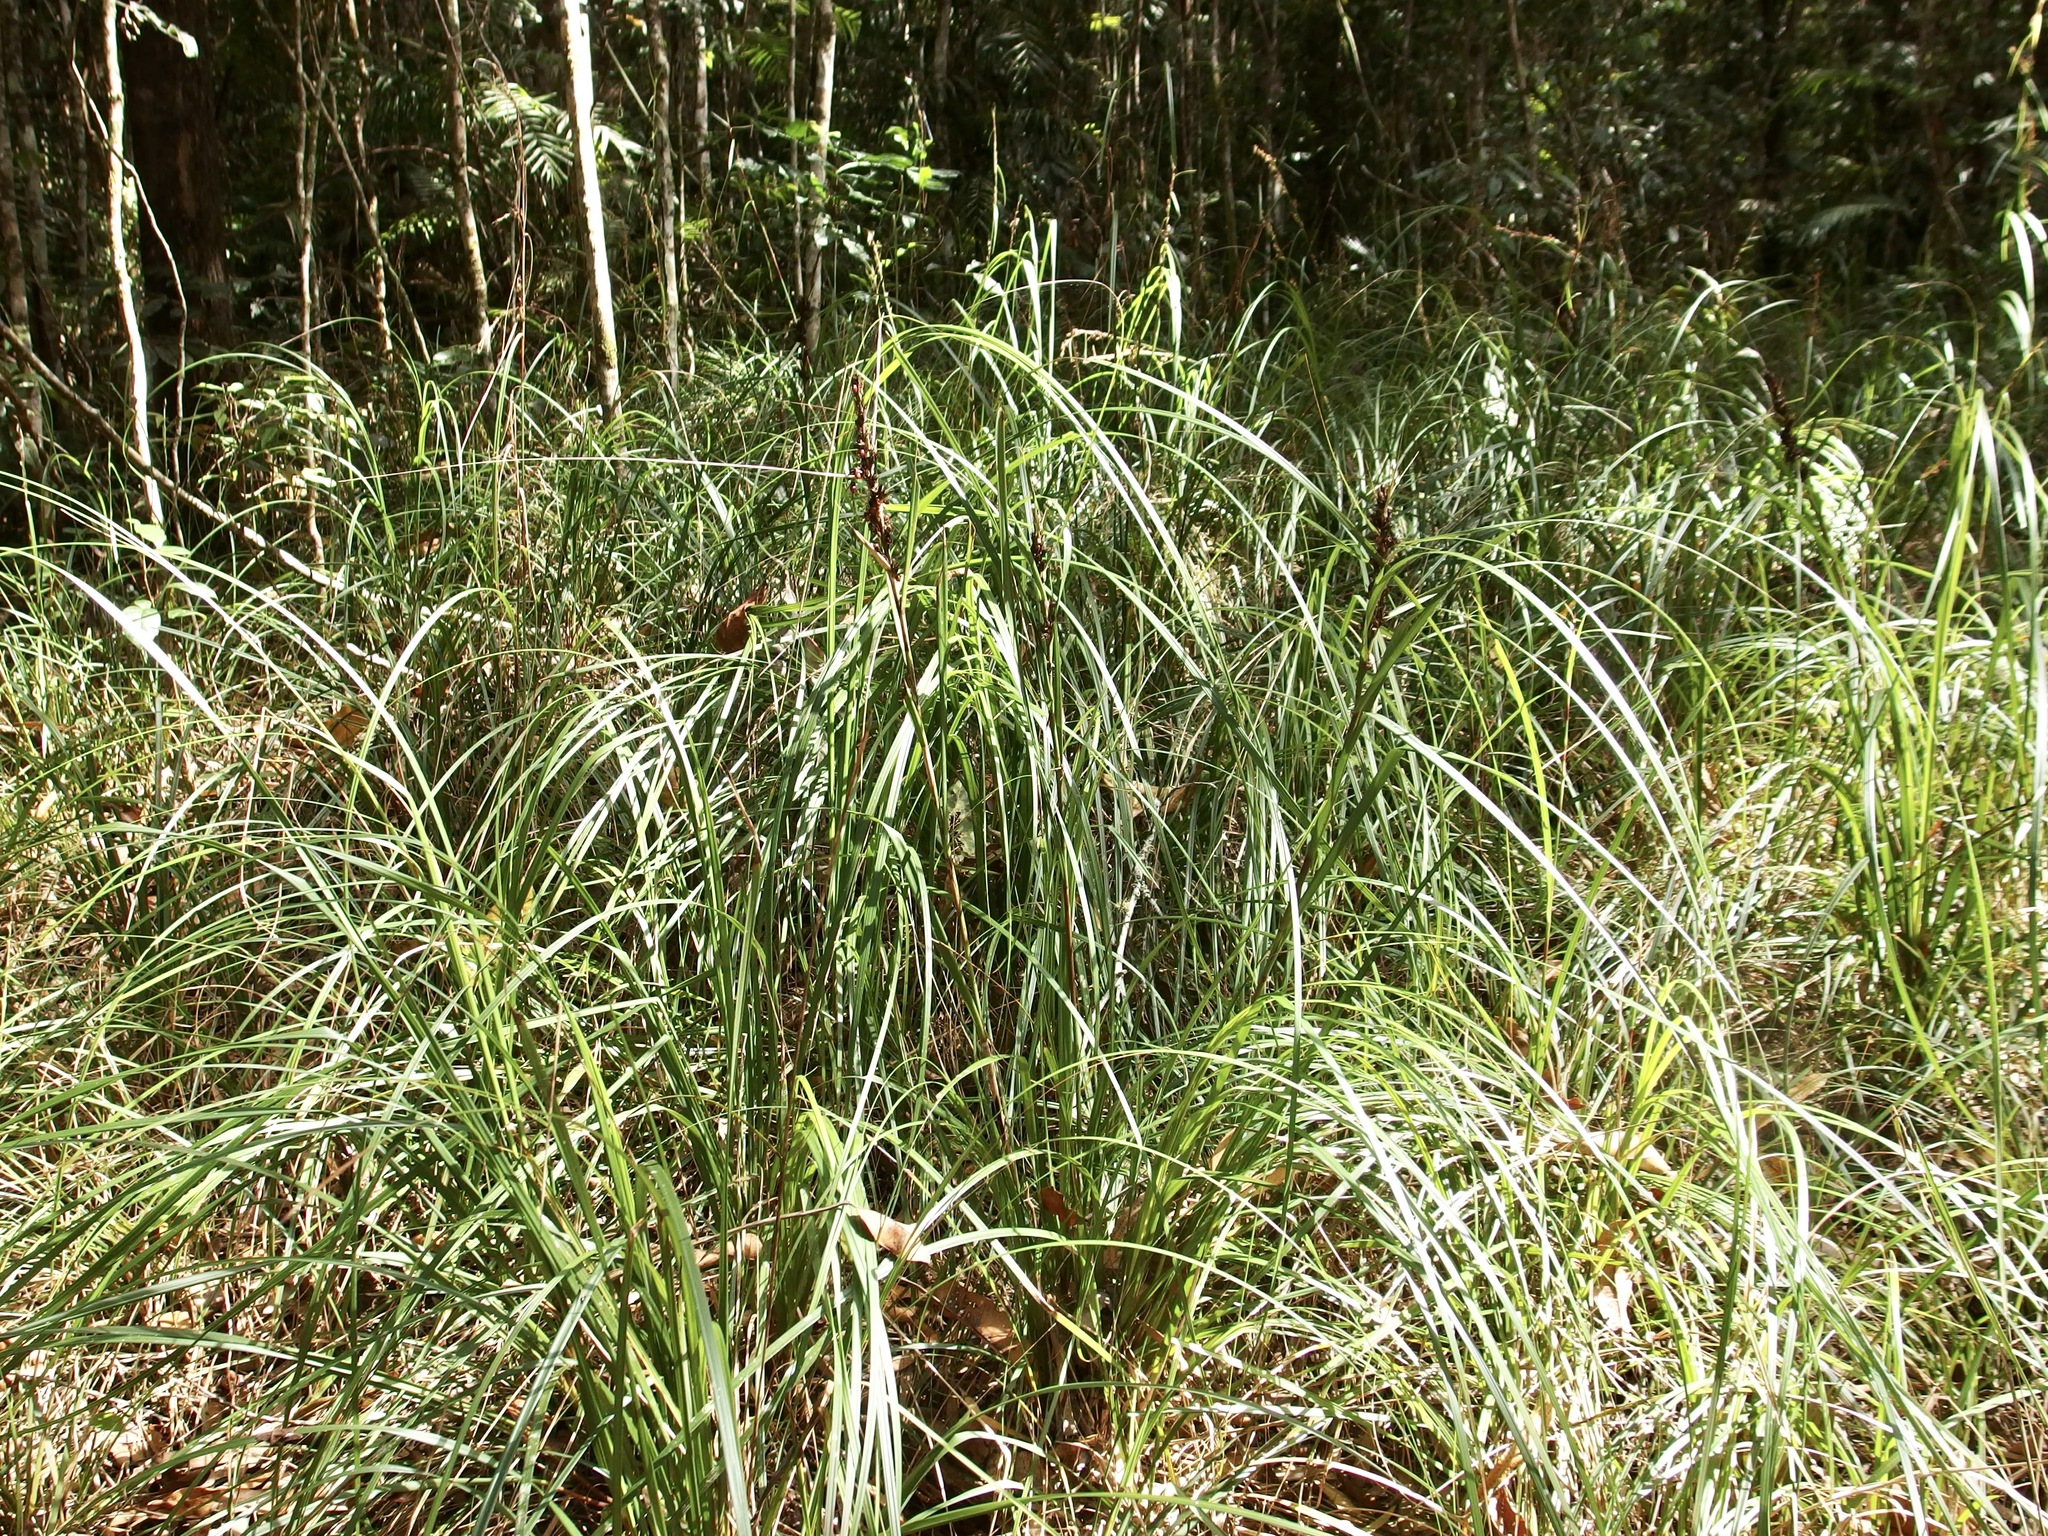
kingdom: Plantae
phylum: Tracheophyta
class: Liliopsida
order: Poales
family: Cyperaceae
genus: Gahnia
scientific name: Gahnia aspera
